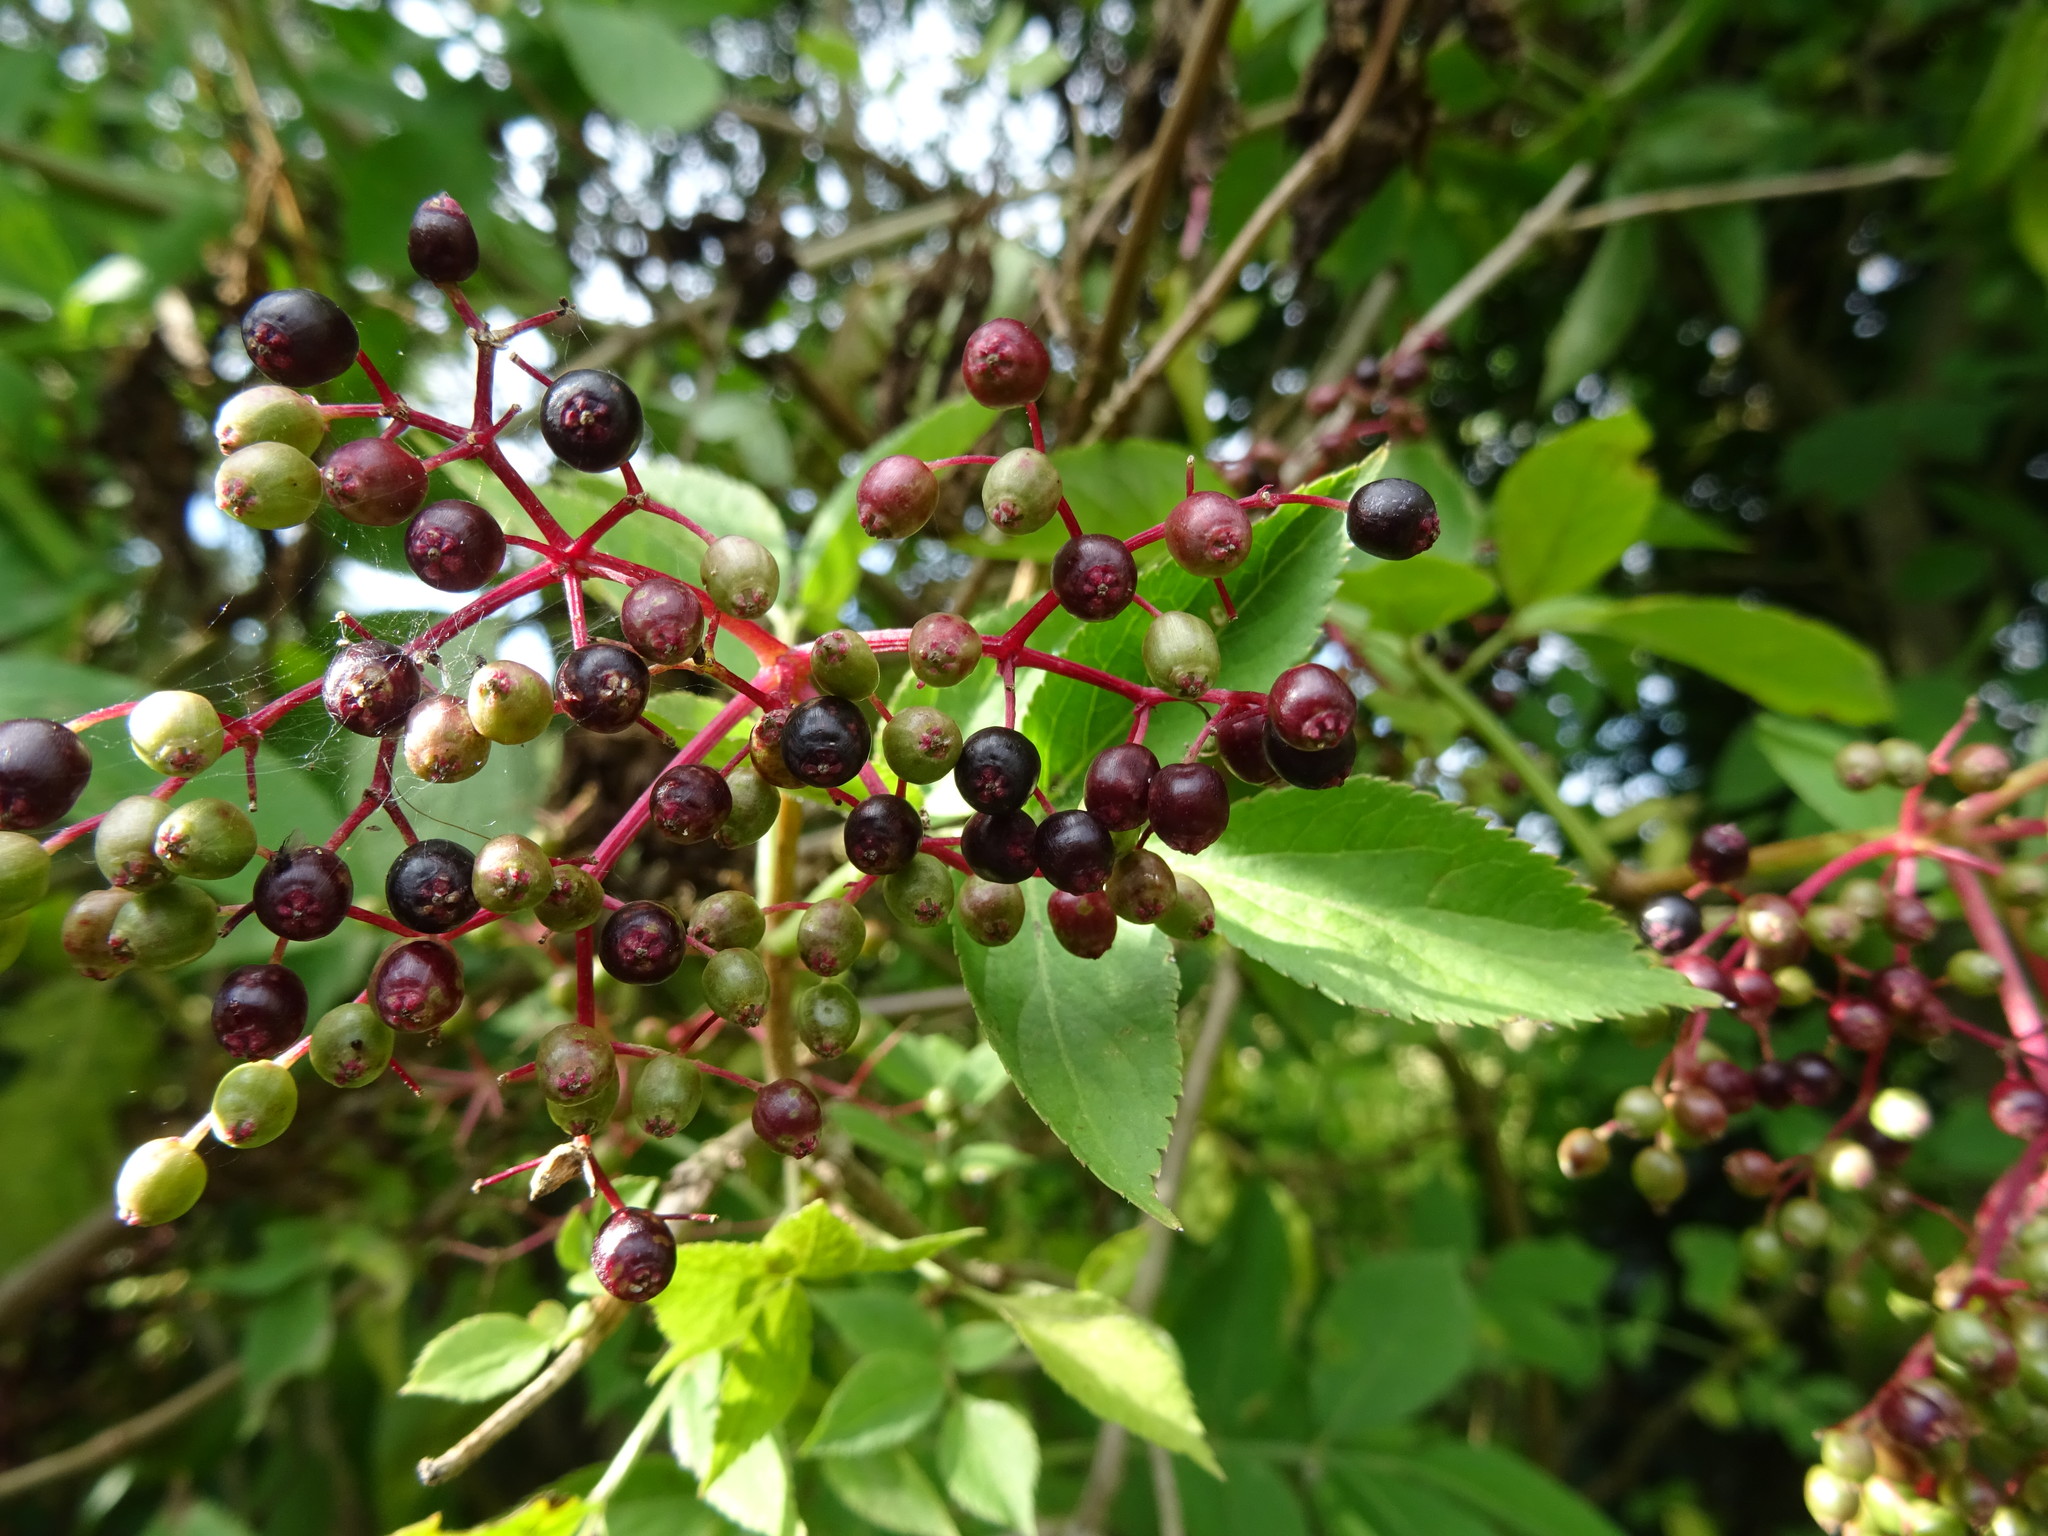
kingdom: Plantae
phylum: Tracheophyta
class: Magnoliopsida
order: Dipsacales
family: Viburnaceae
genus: Sambucus
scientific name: Sambucus nigra
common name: Elder
